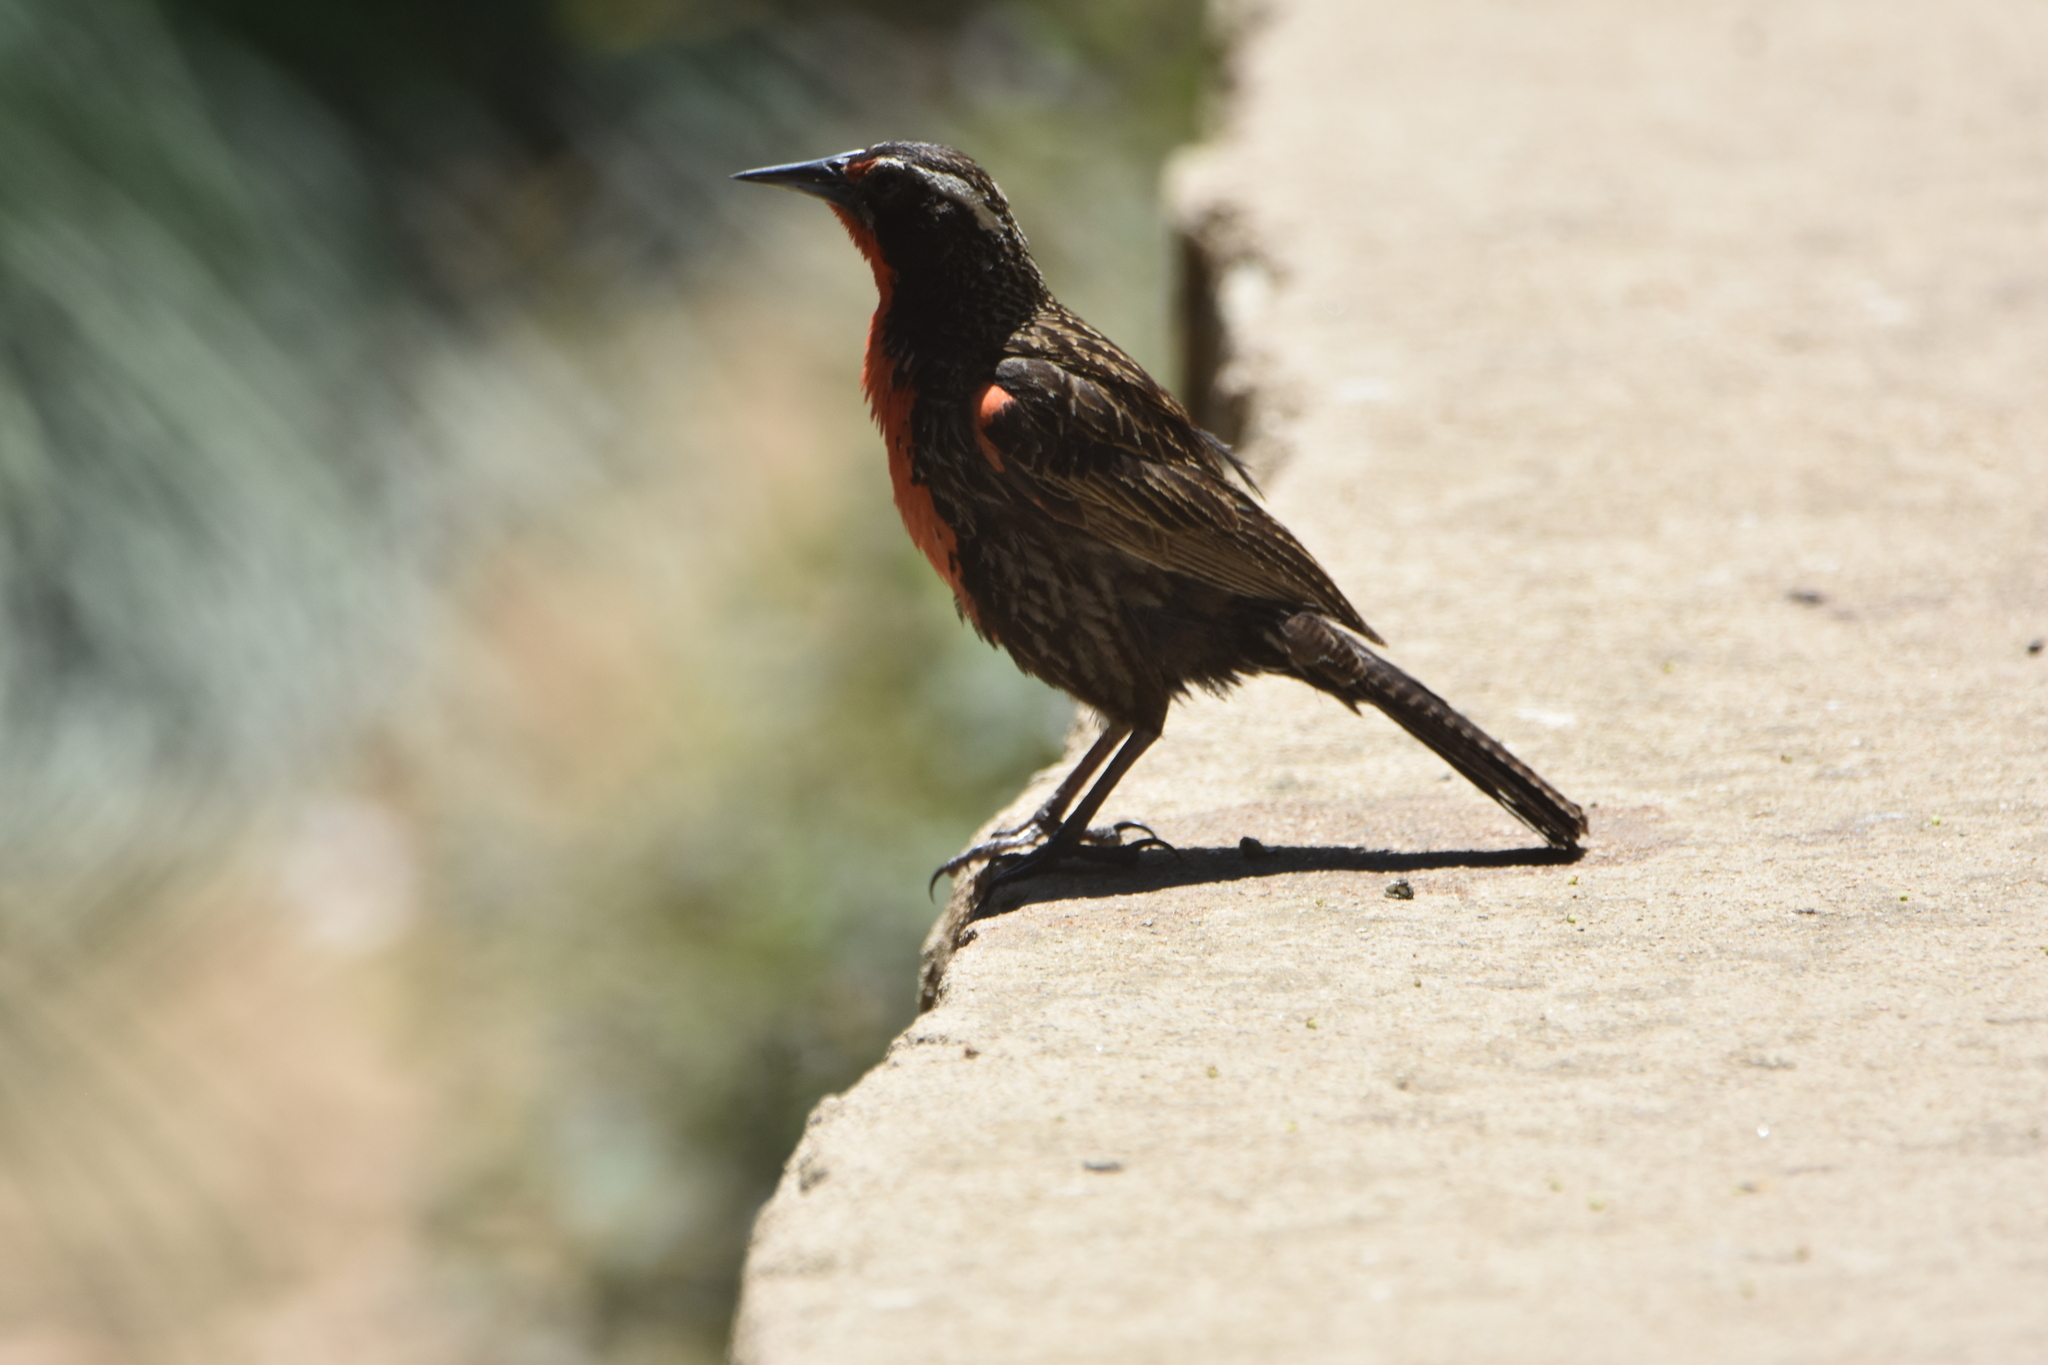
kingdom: Animalia
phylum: Chordata
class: Aves
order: Passeriformes
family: Icteridae
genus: Sturnella
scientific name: Sturnella loyca
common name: Long-tailed meadowlark
